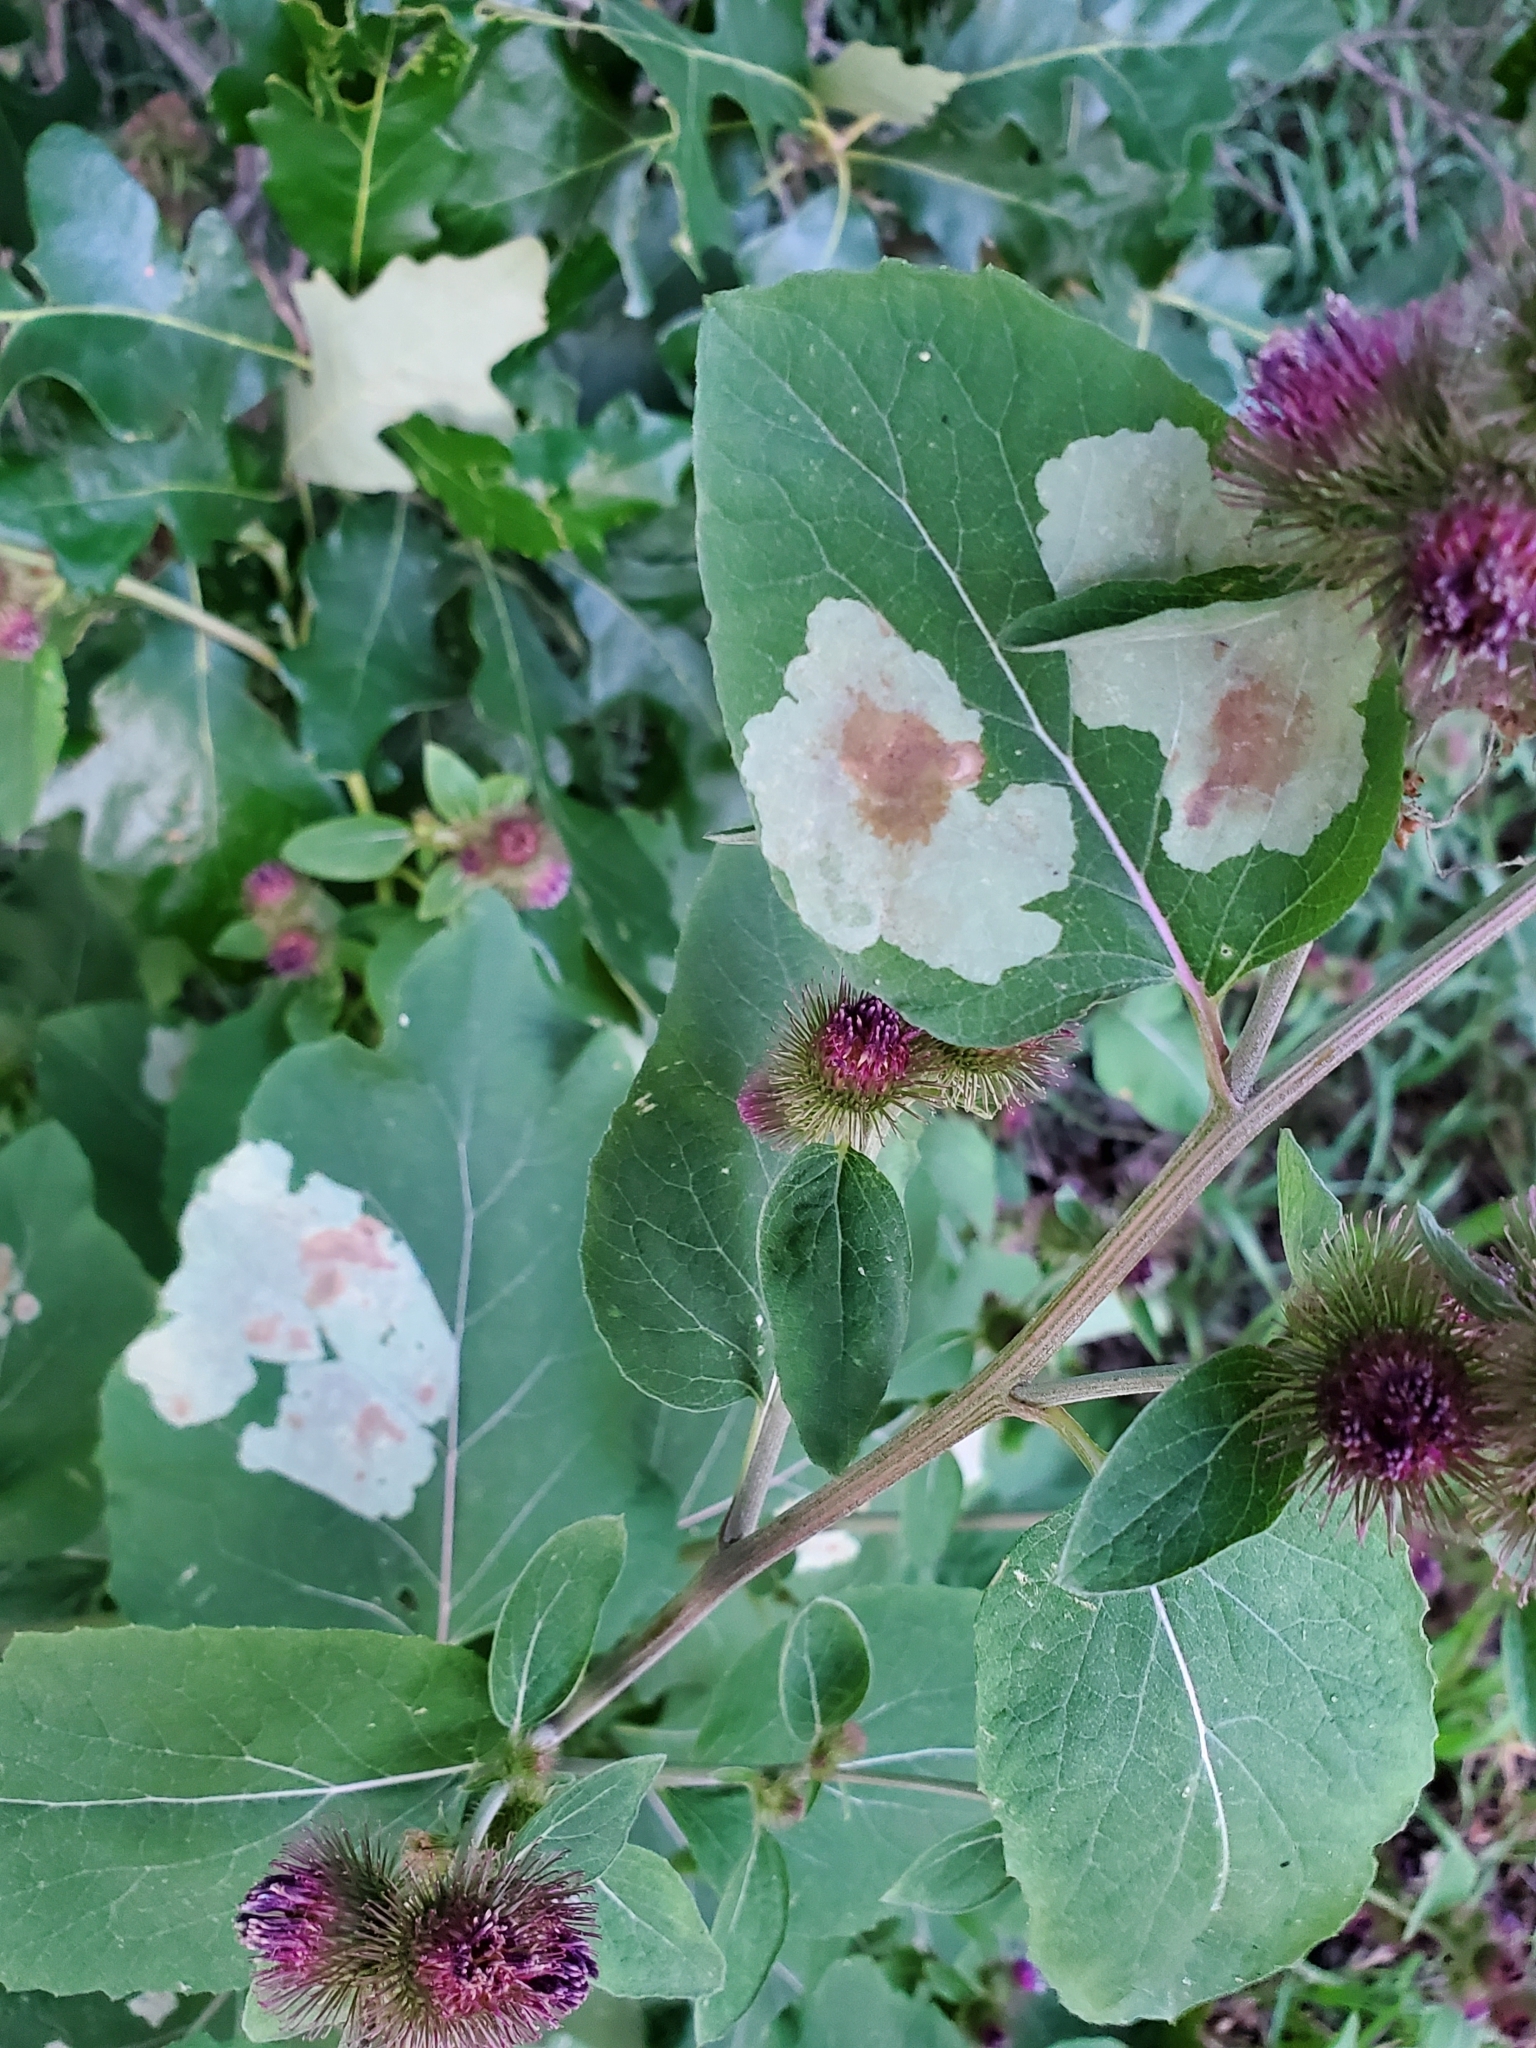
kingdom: Animalia
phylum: Arthropoda
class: Insecta
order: Diptera
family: Agromyzidae
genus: Calycomyza
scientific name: Calycomyza flavinotum
